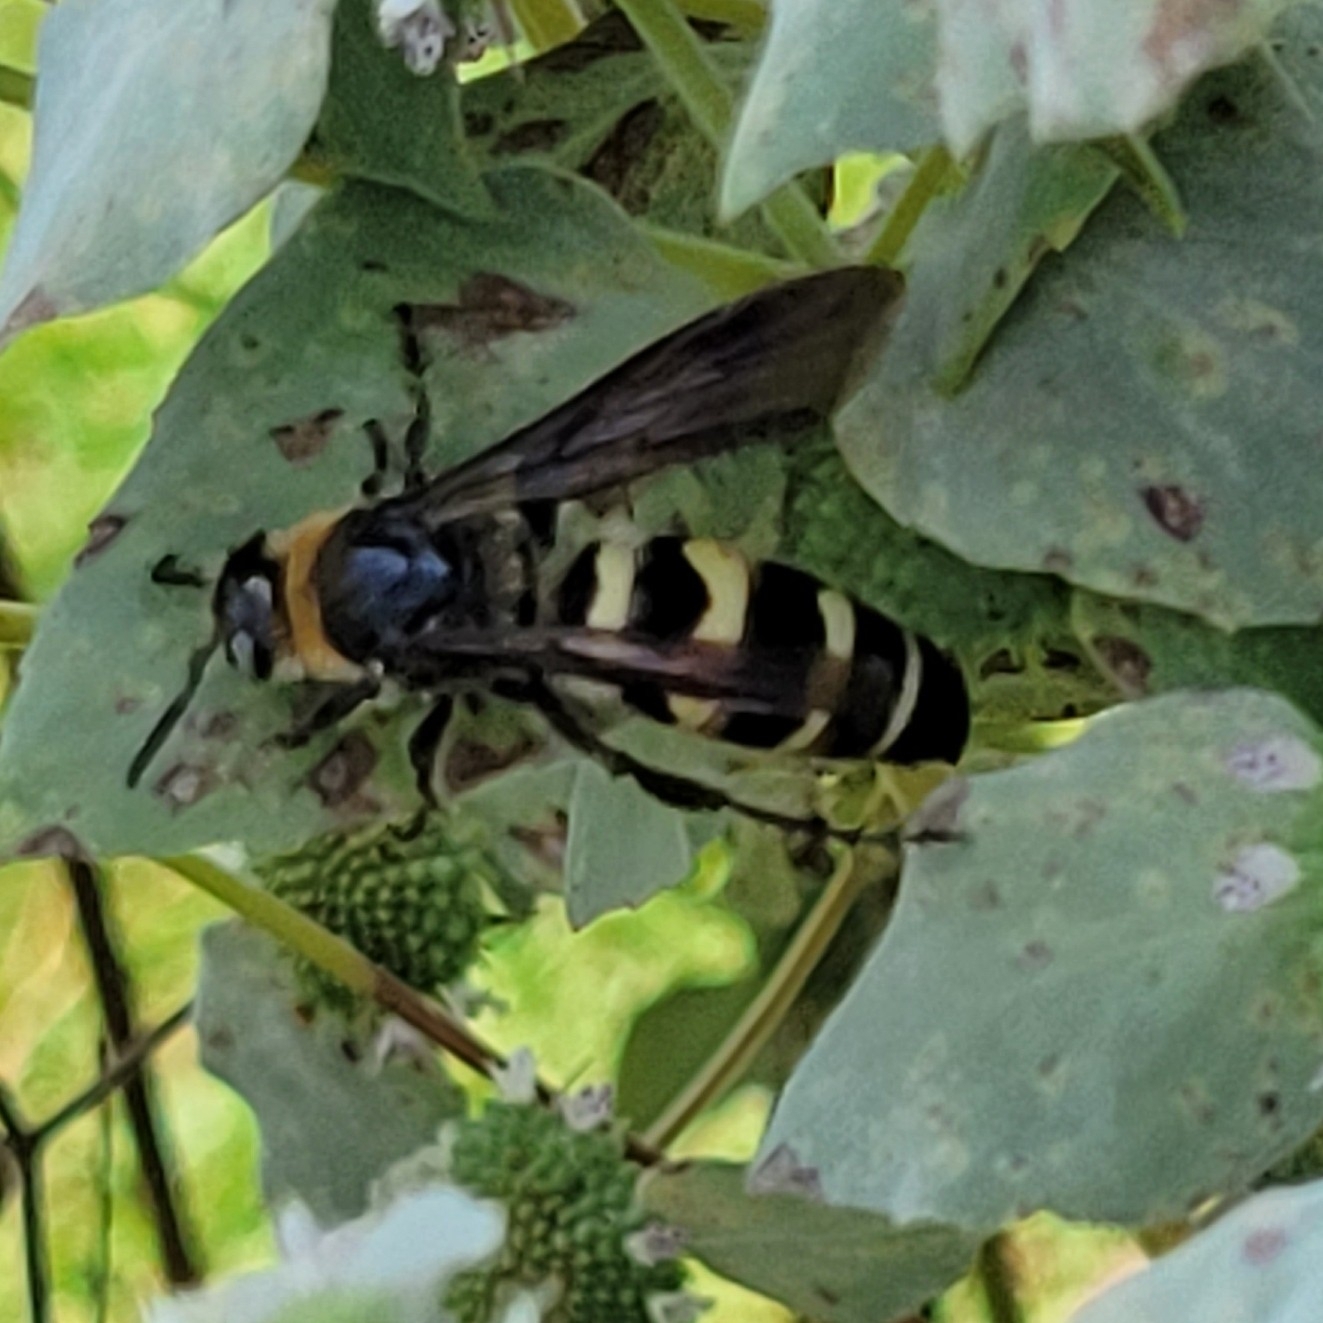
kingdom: Animalia
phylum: Arthropoda
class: Insecta
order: Hymenoptera
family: Scoliidae
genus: Dielis
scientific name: Dielis
